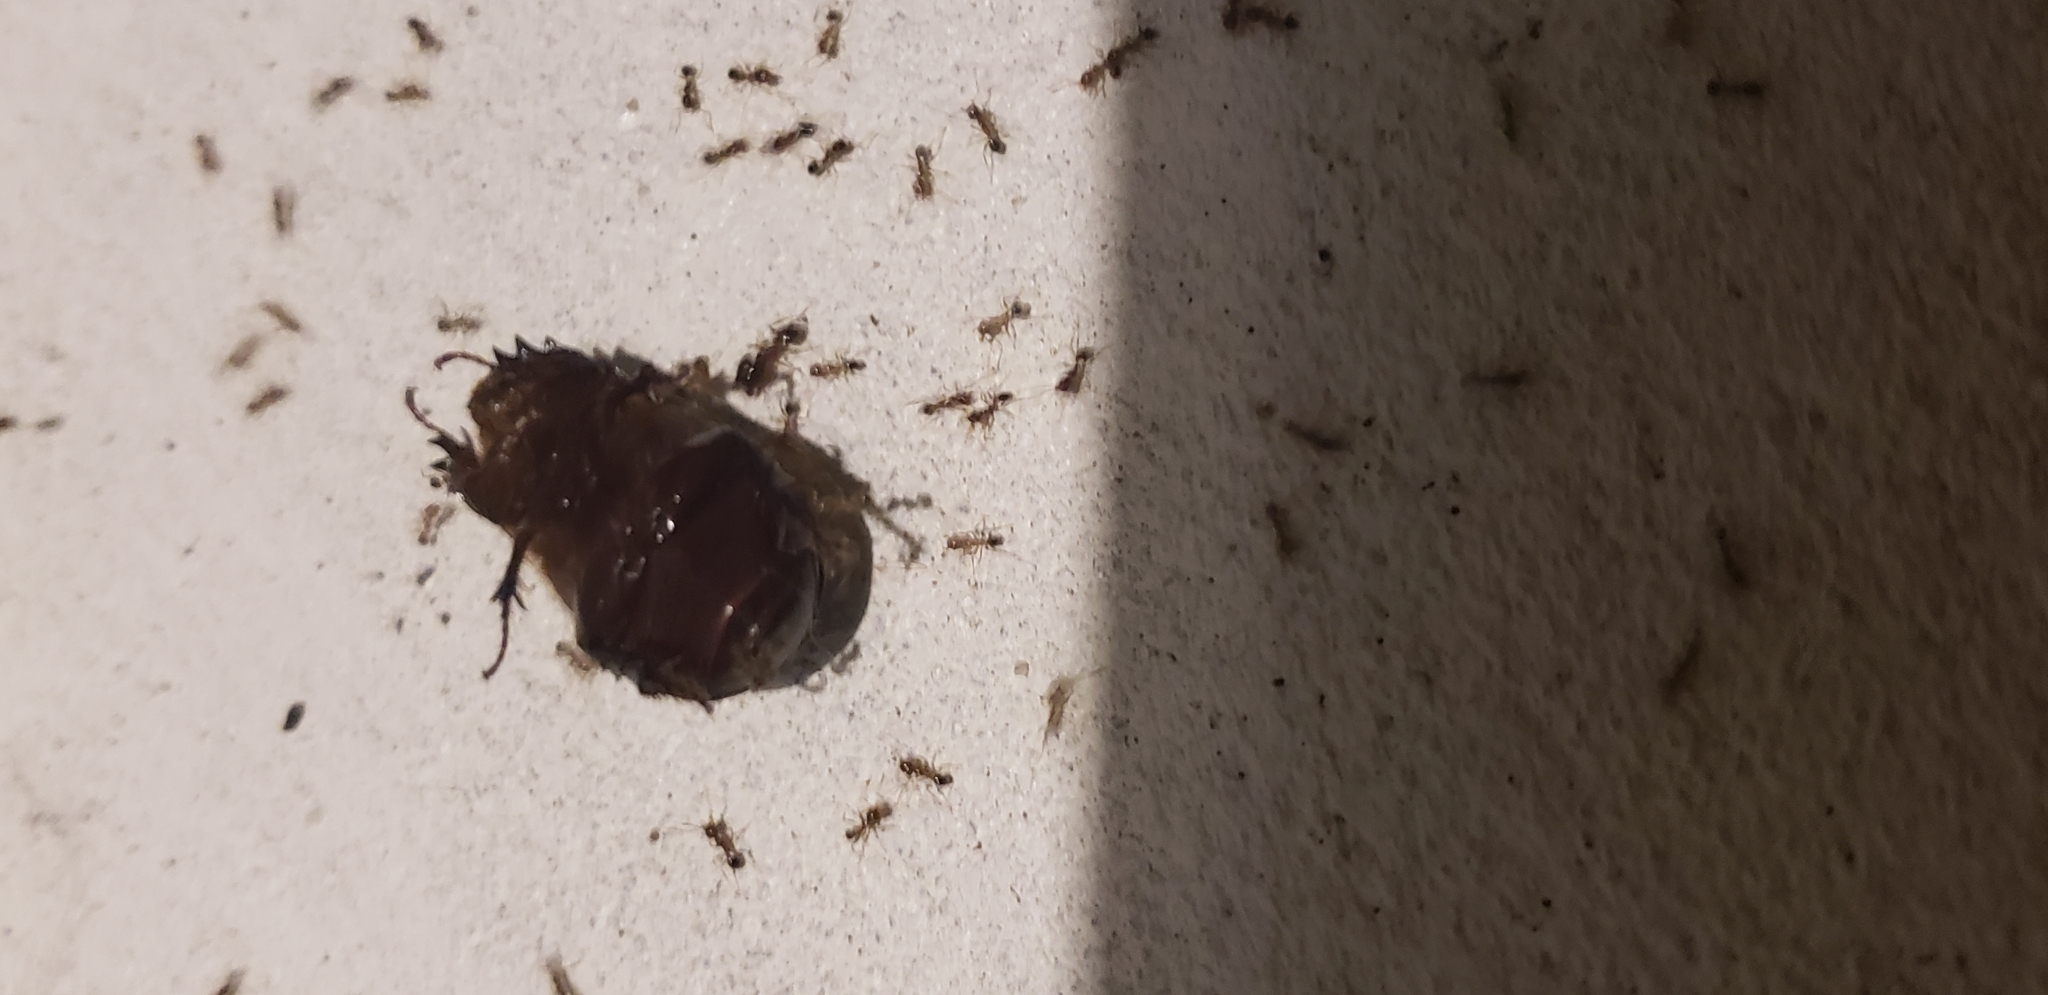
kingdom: Animalia
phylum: Arthropoda
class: Insecta
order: Coleoptera
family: Scarabaeidae
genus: Ligyrus
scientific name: Ligyrus cuniculus
